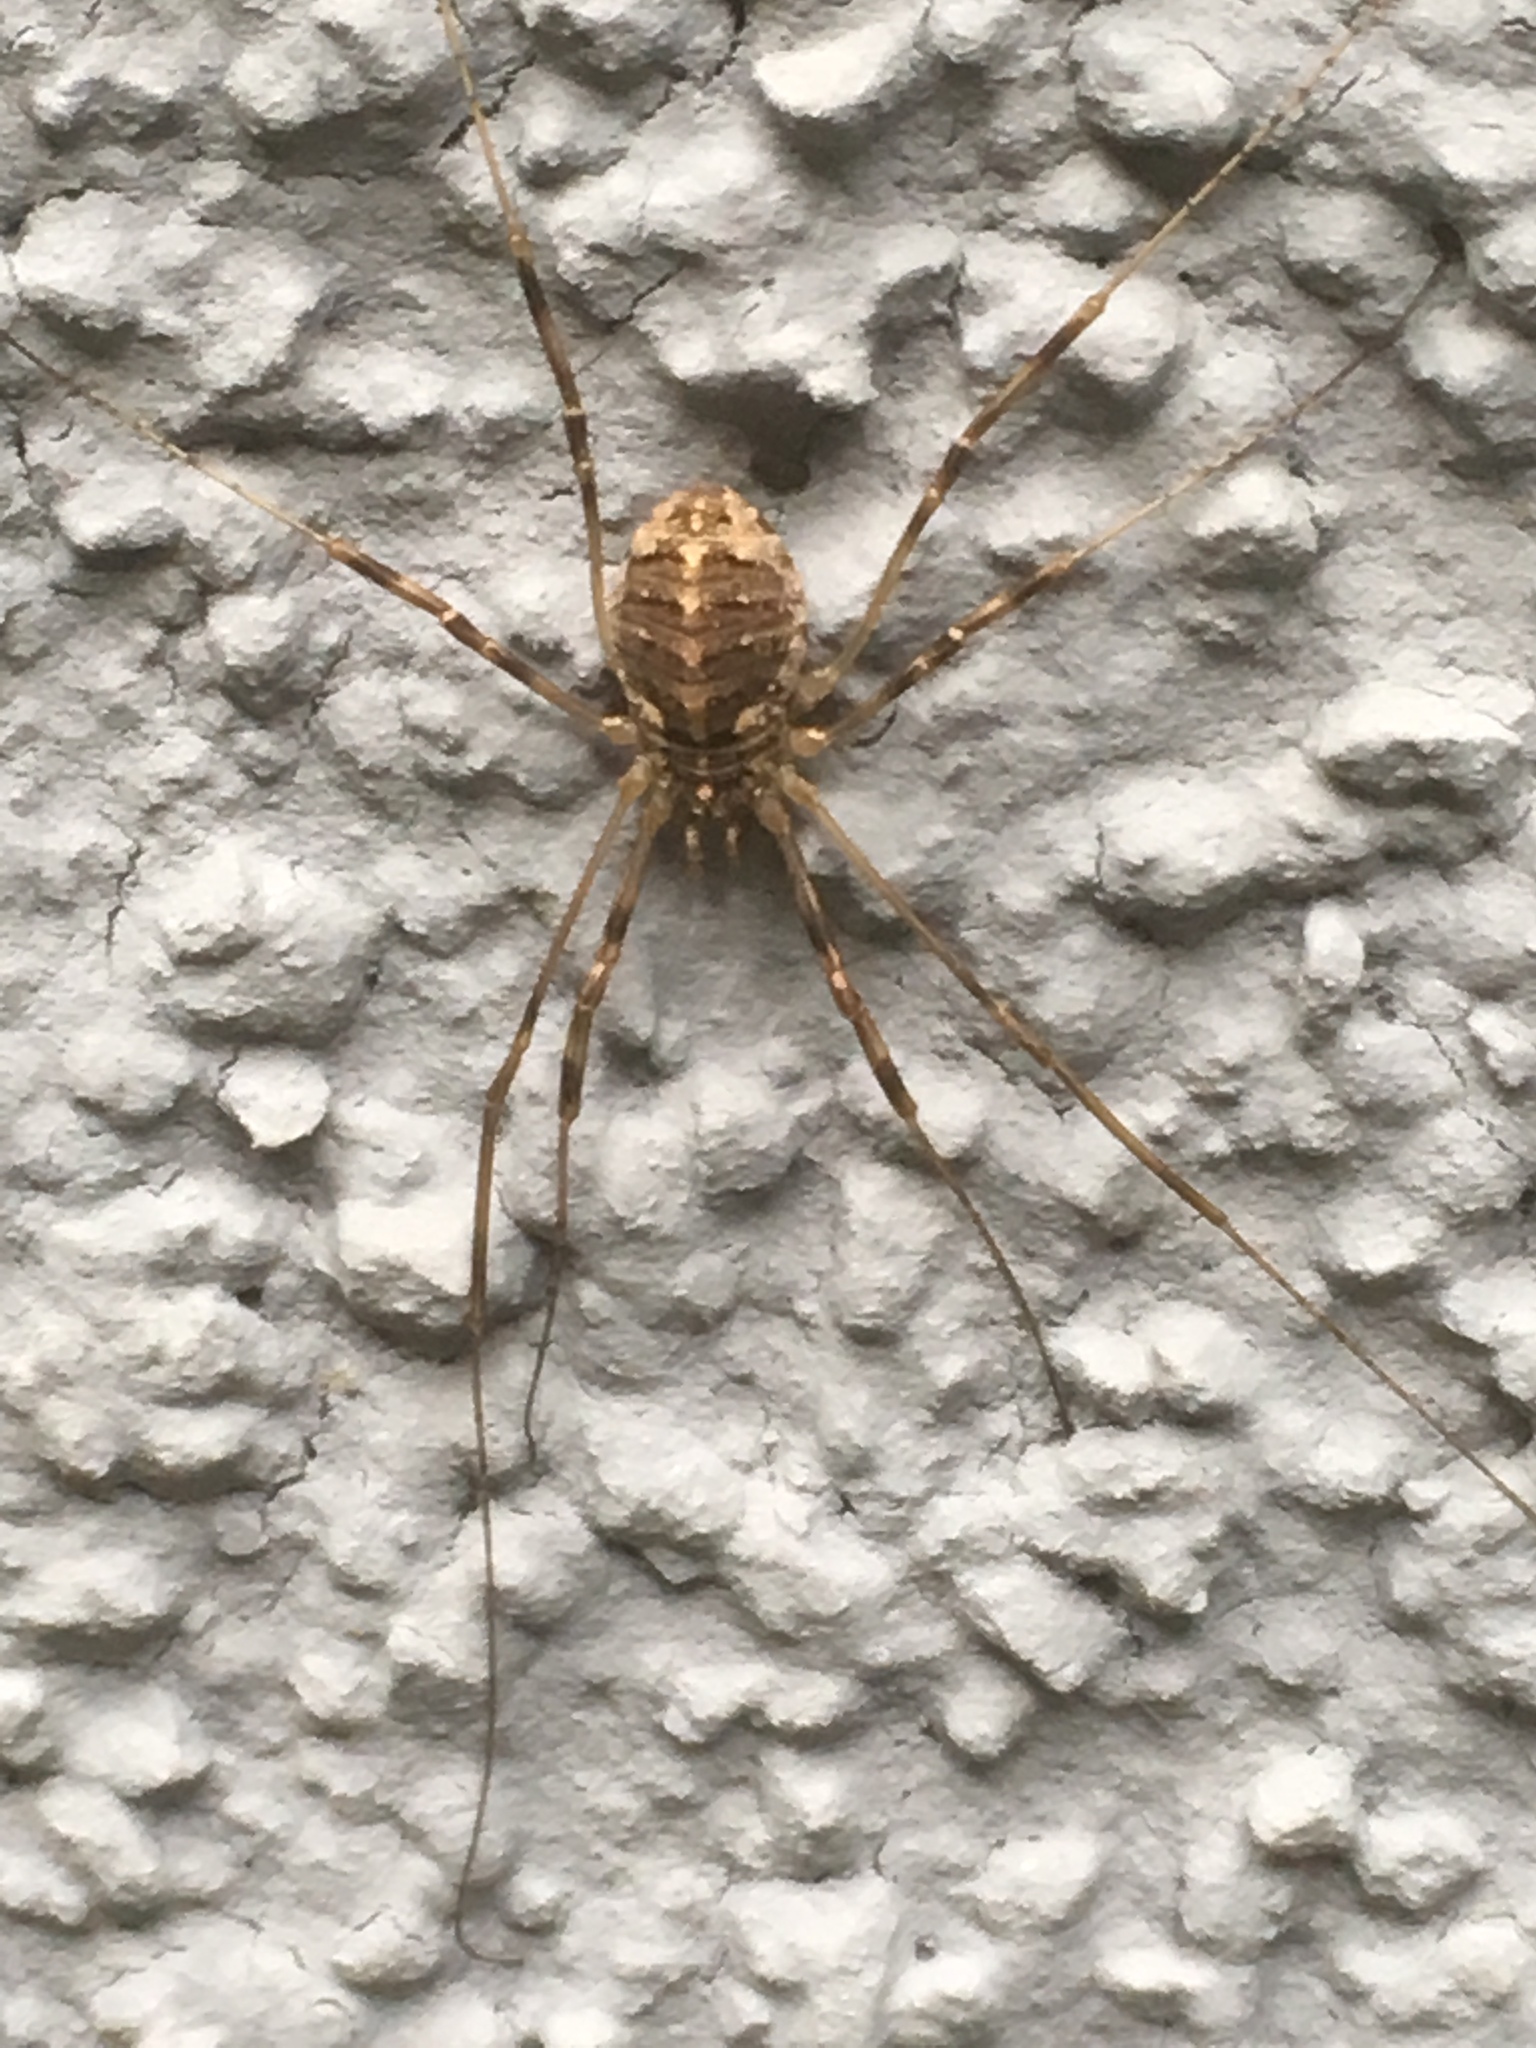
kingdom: Animalia
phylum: Arthropoda
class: Arachnida
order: Opiliones
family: Phalangiidae
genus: Opilio
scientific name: Opilio saxatilis
